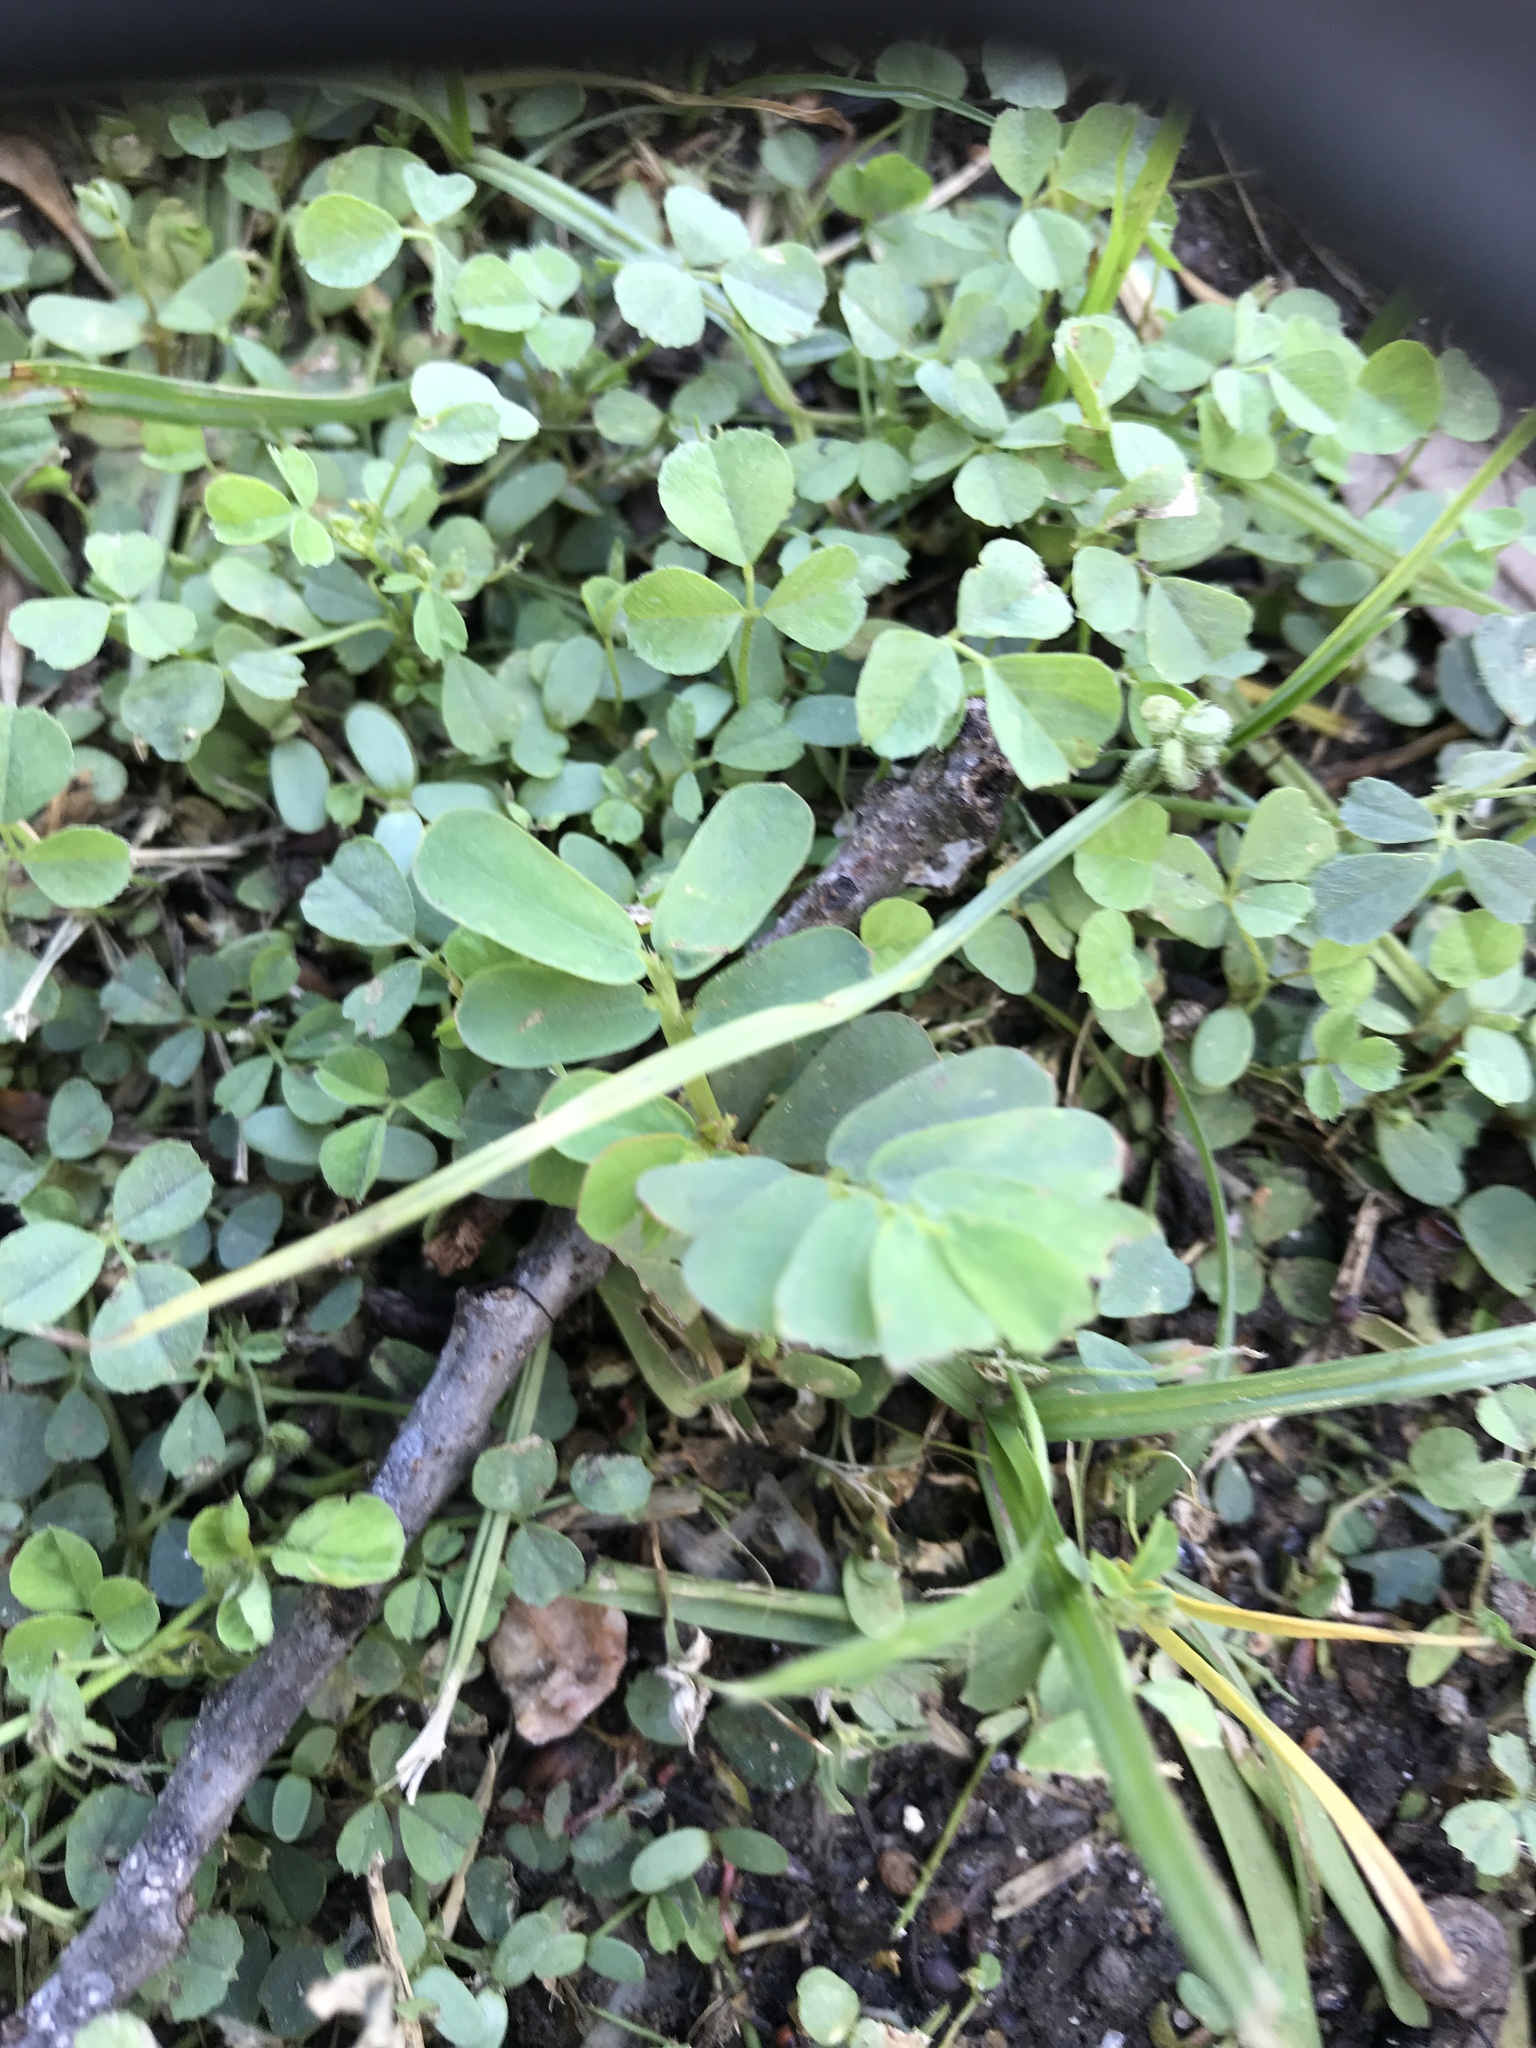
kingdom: Plantae
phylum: Tracheophyta
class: Magnoliopsida
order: Malpighiales
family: Phyllanthaceae
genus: Phyllanthus
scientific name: Phyllanthus urinaria
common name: Chamber bitter
